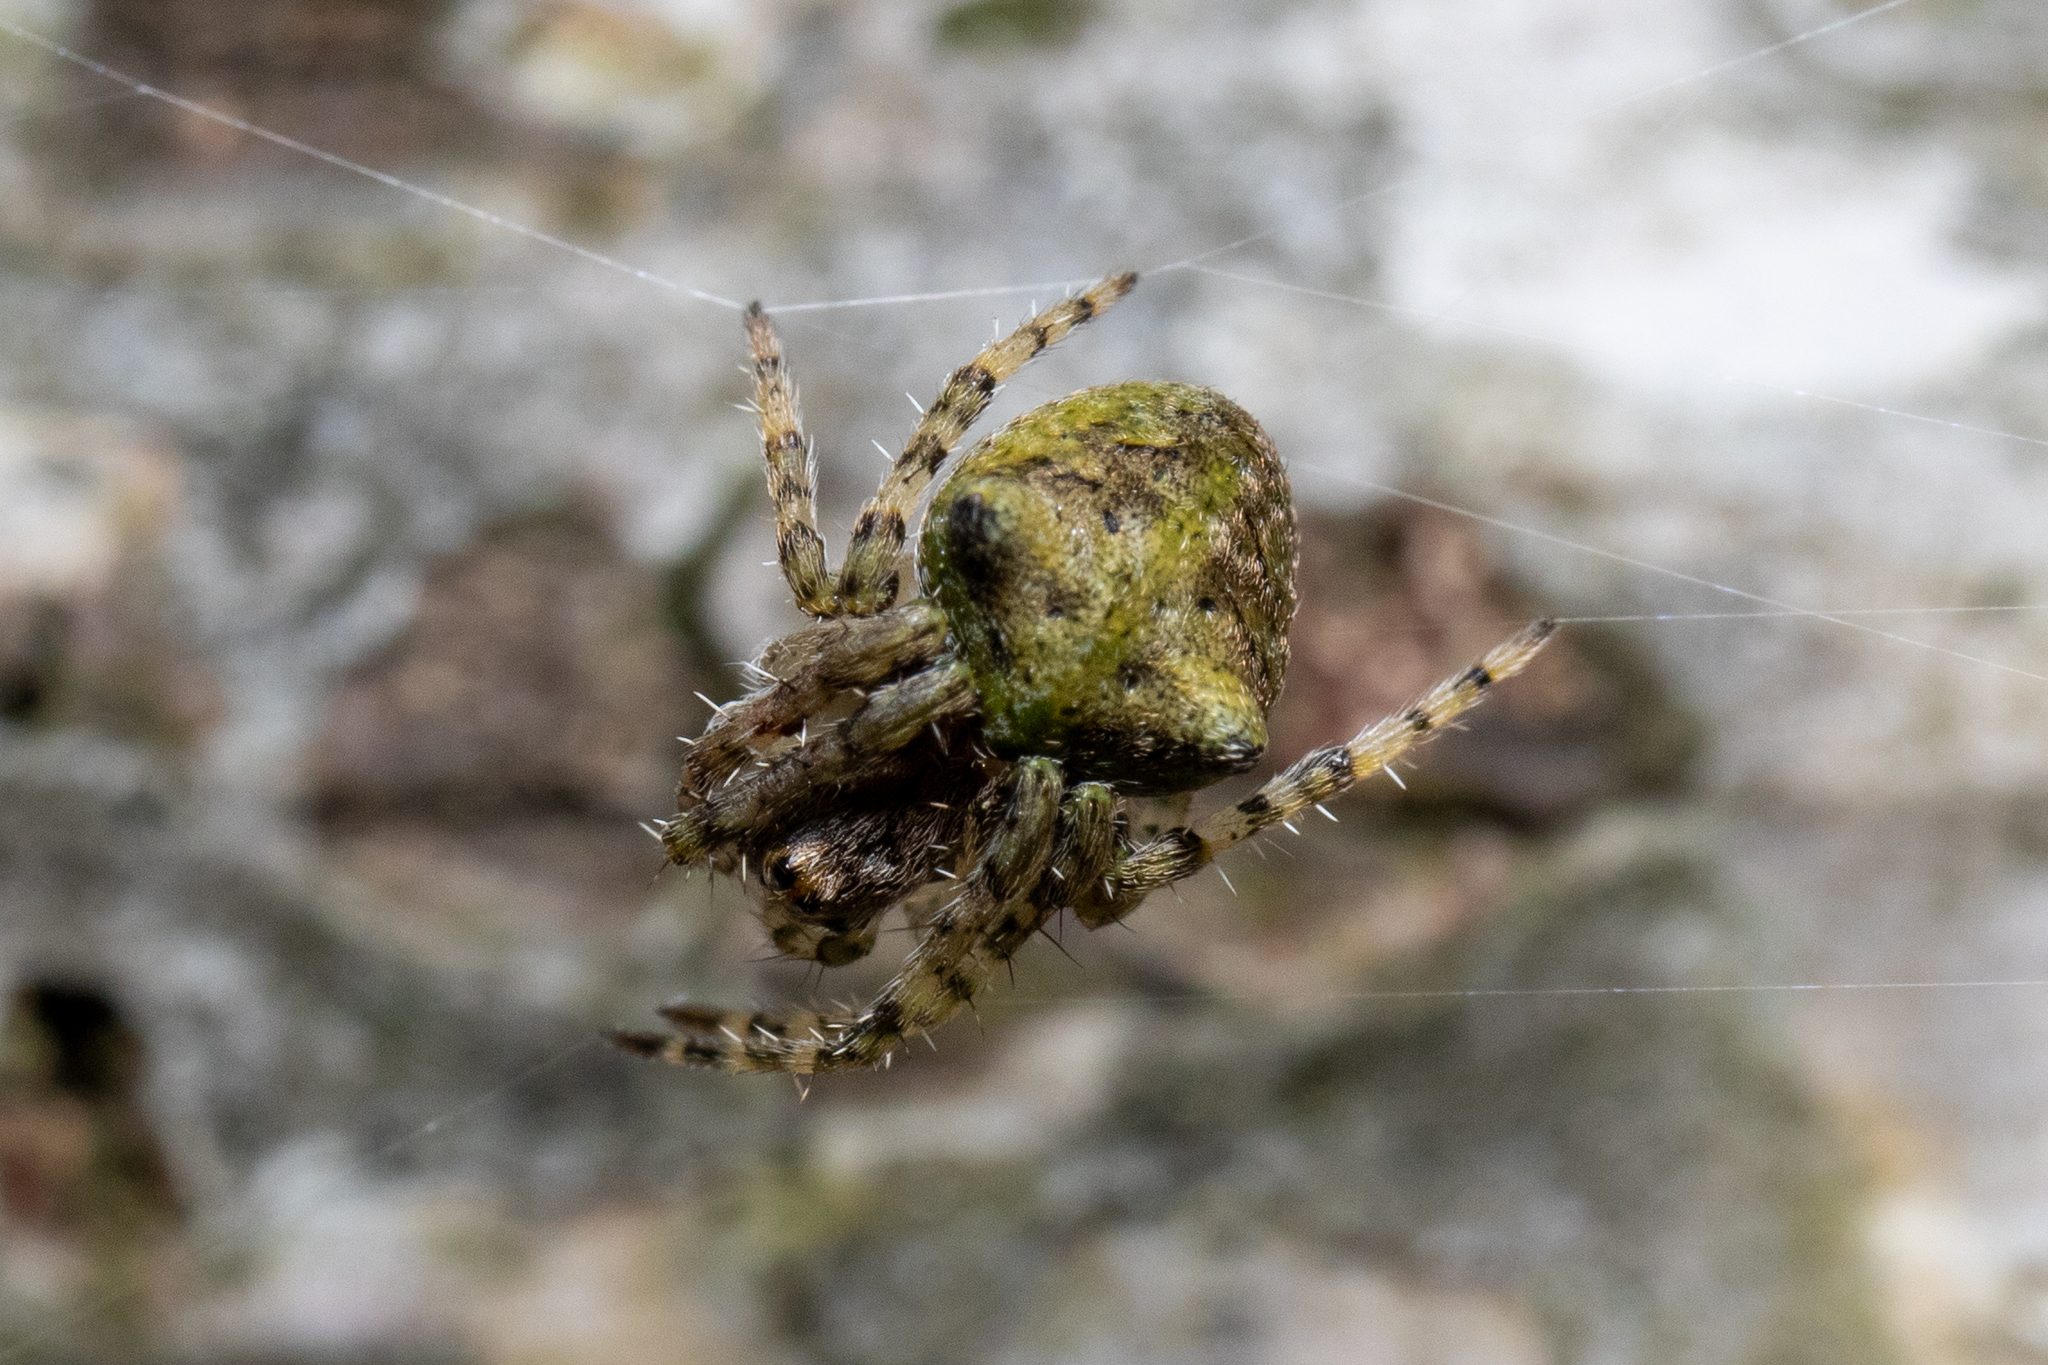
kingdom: Animalia
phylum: Arthropoda
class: Arachnida
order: Araneae
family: Araneidae
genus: Gibbaranea
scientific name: Gibbaranea gibbosa
